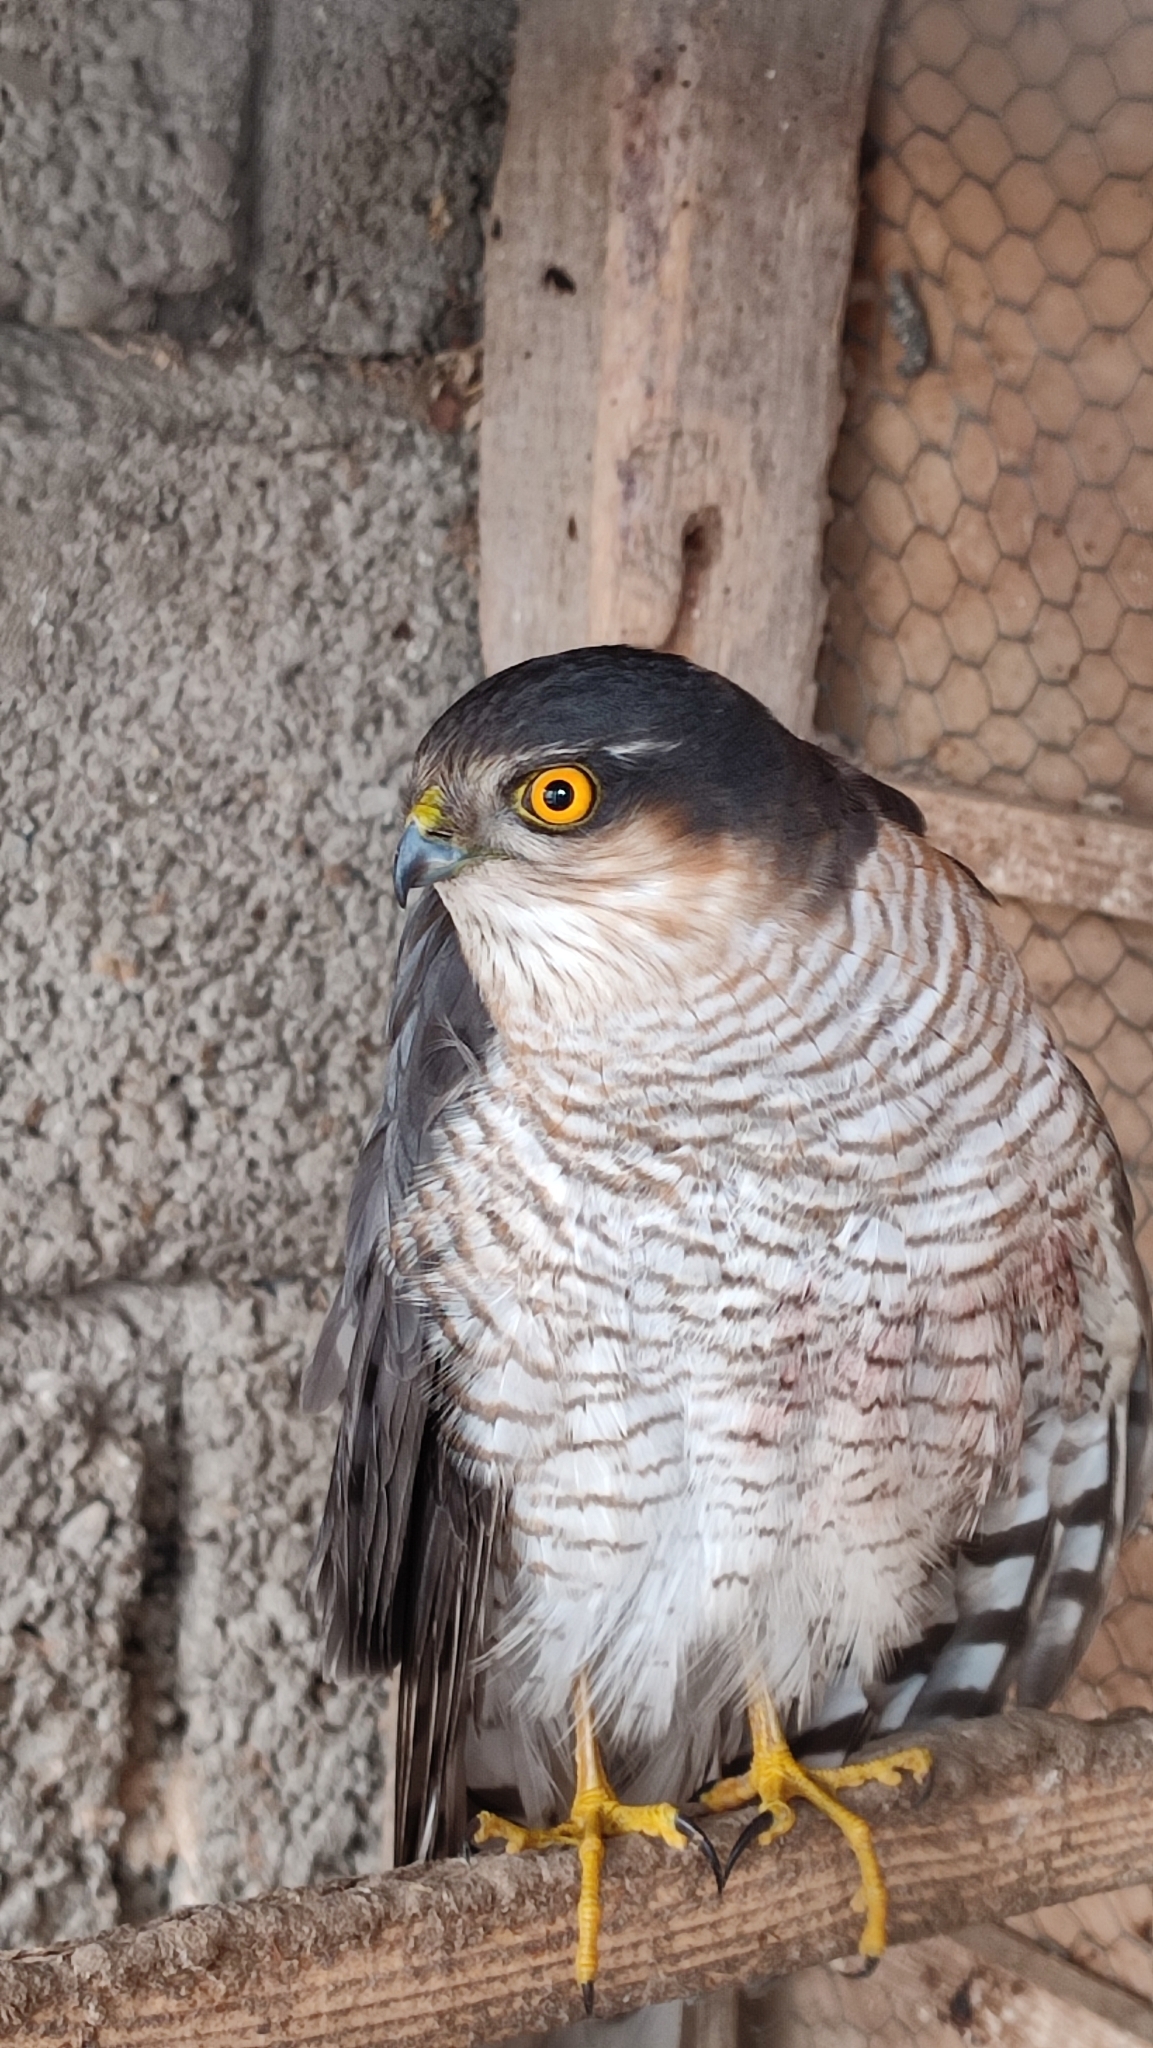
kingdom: Animalia
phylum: Chordata
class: Aves
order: Accipitriformes
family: Accipitridae
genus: Accipiter
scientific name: Accipiter nisus
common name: Eurasian sparrowhawk
